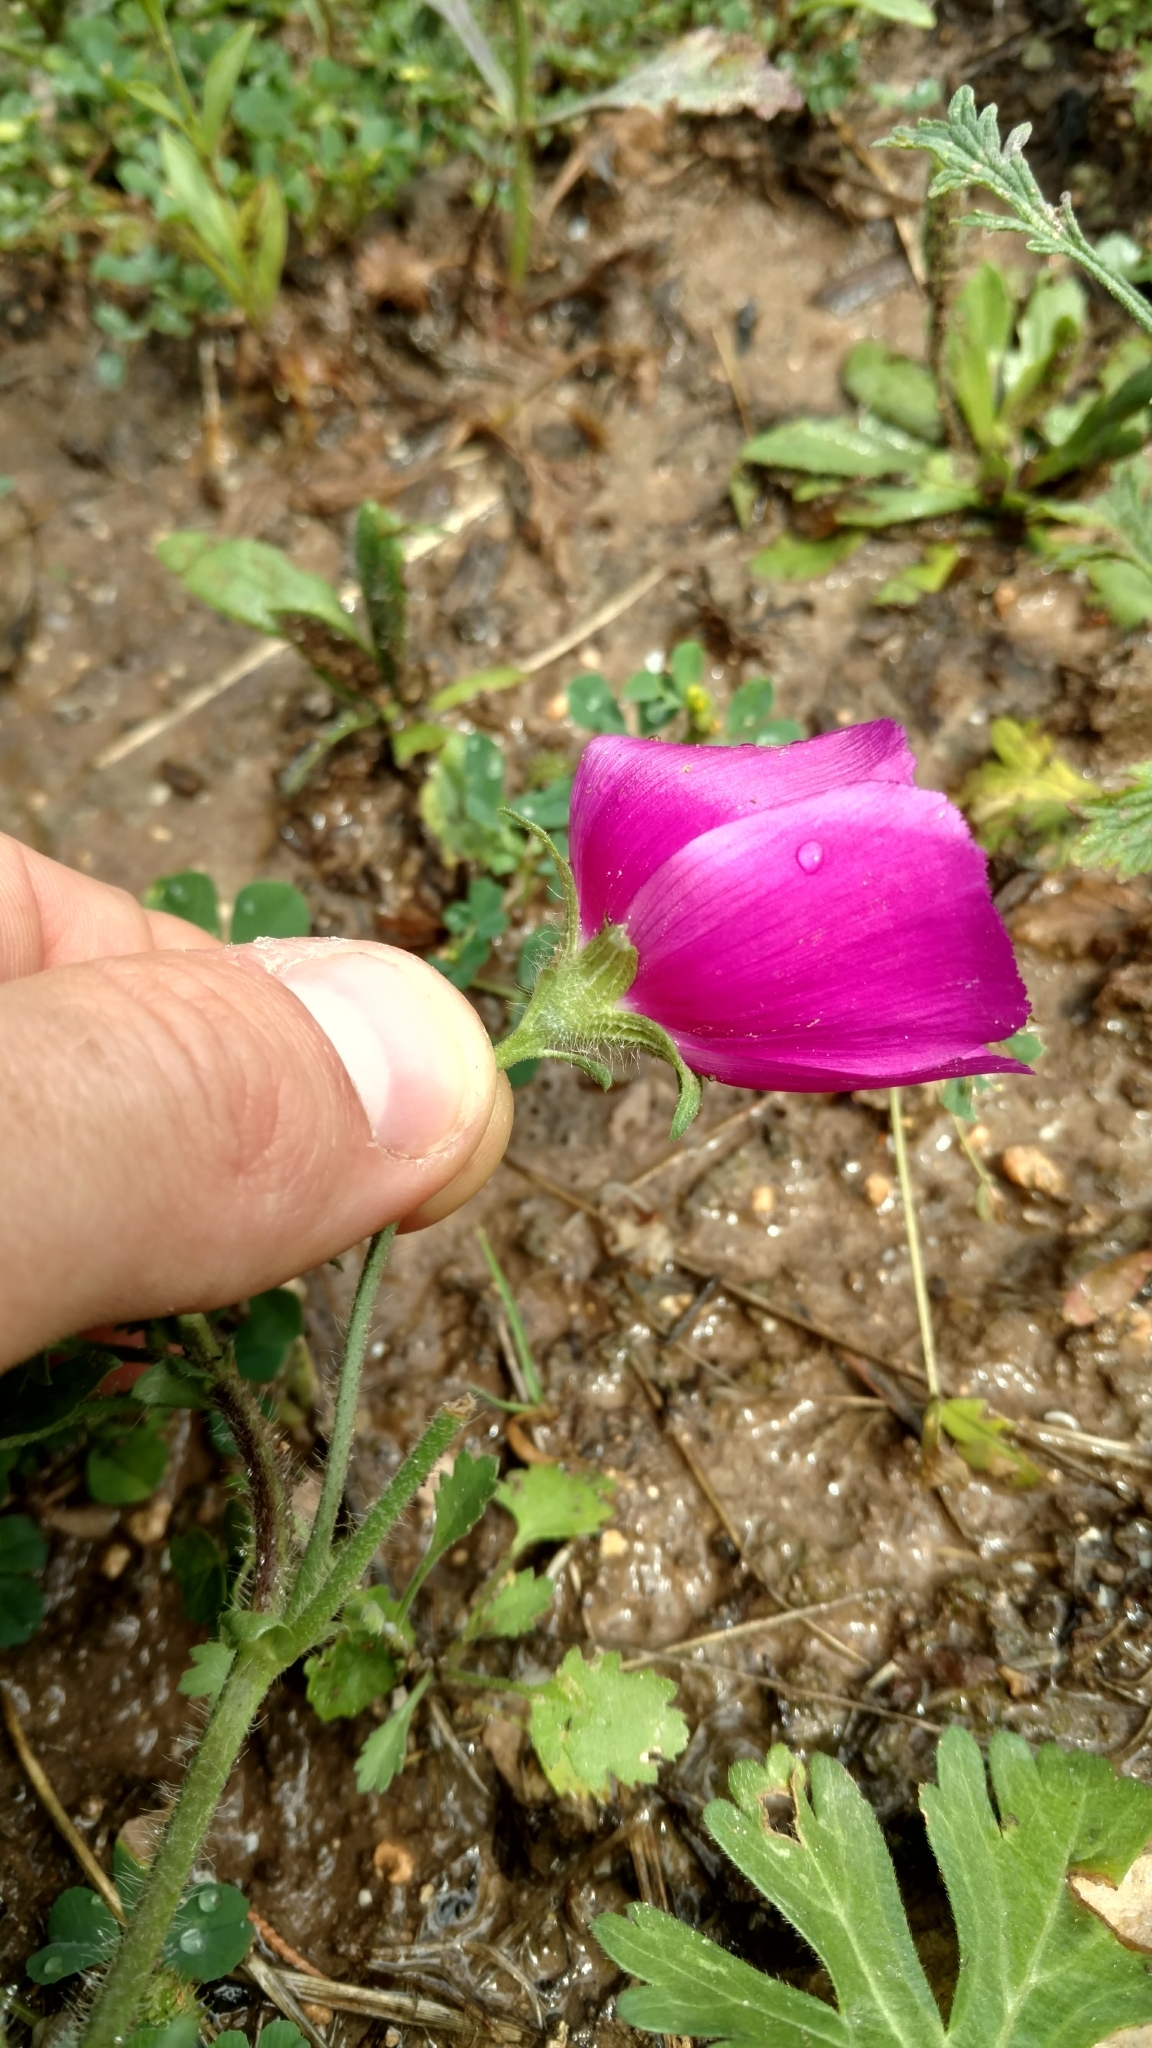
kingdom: Plantae
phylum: Tracheophyta
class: Magnoliopsida
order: Malvales
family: Malvaceae
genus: Callirhoe
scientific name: Callirhoe involucrata
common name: Purple poppy-mallow
